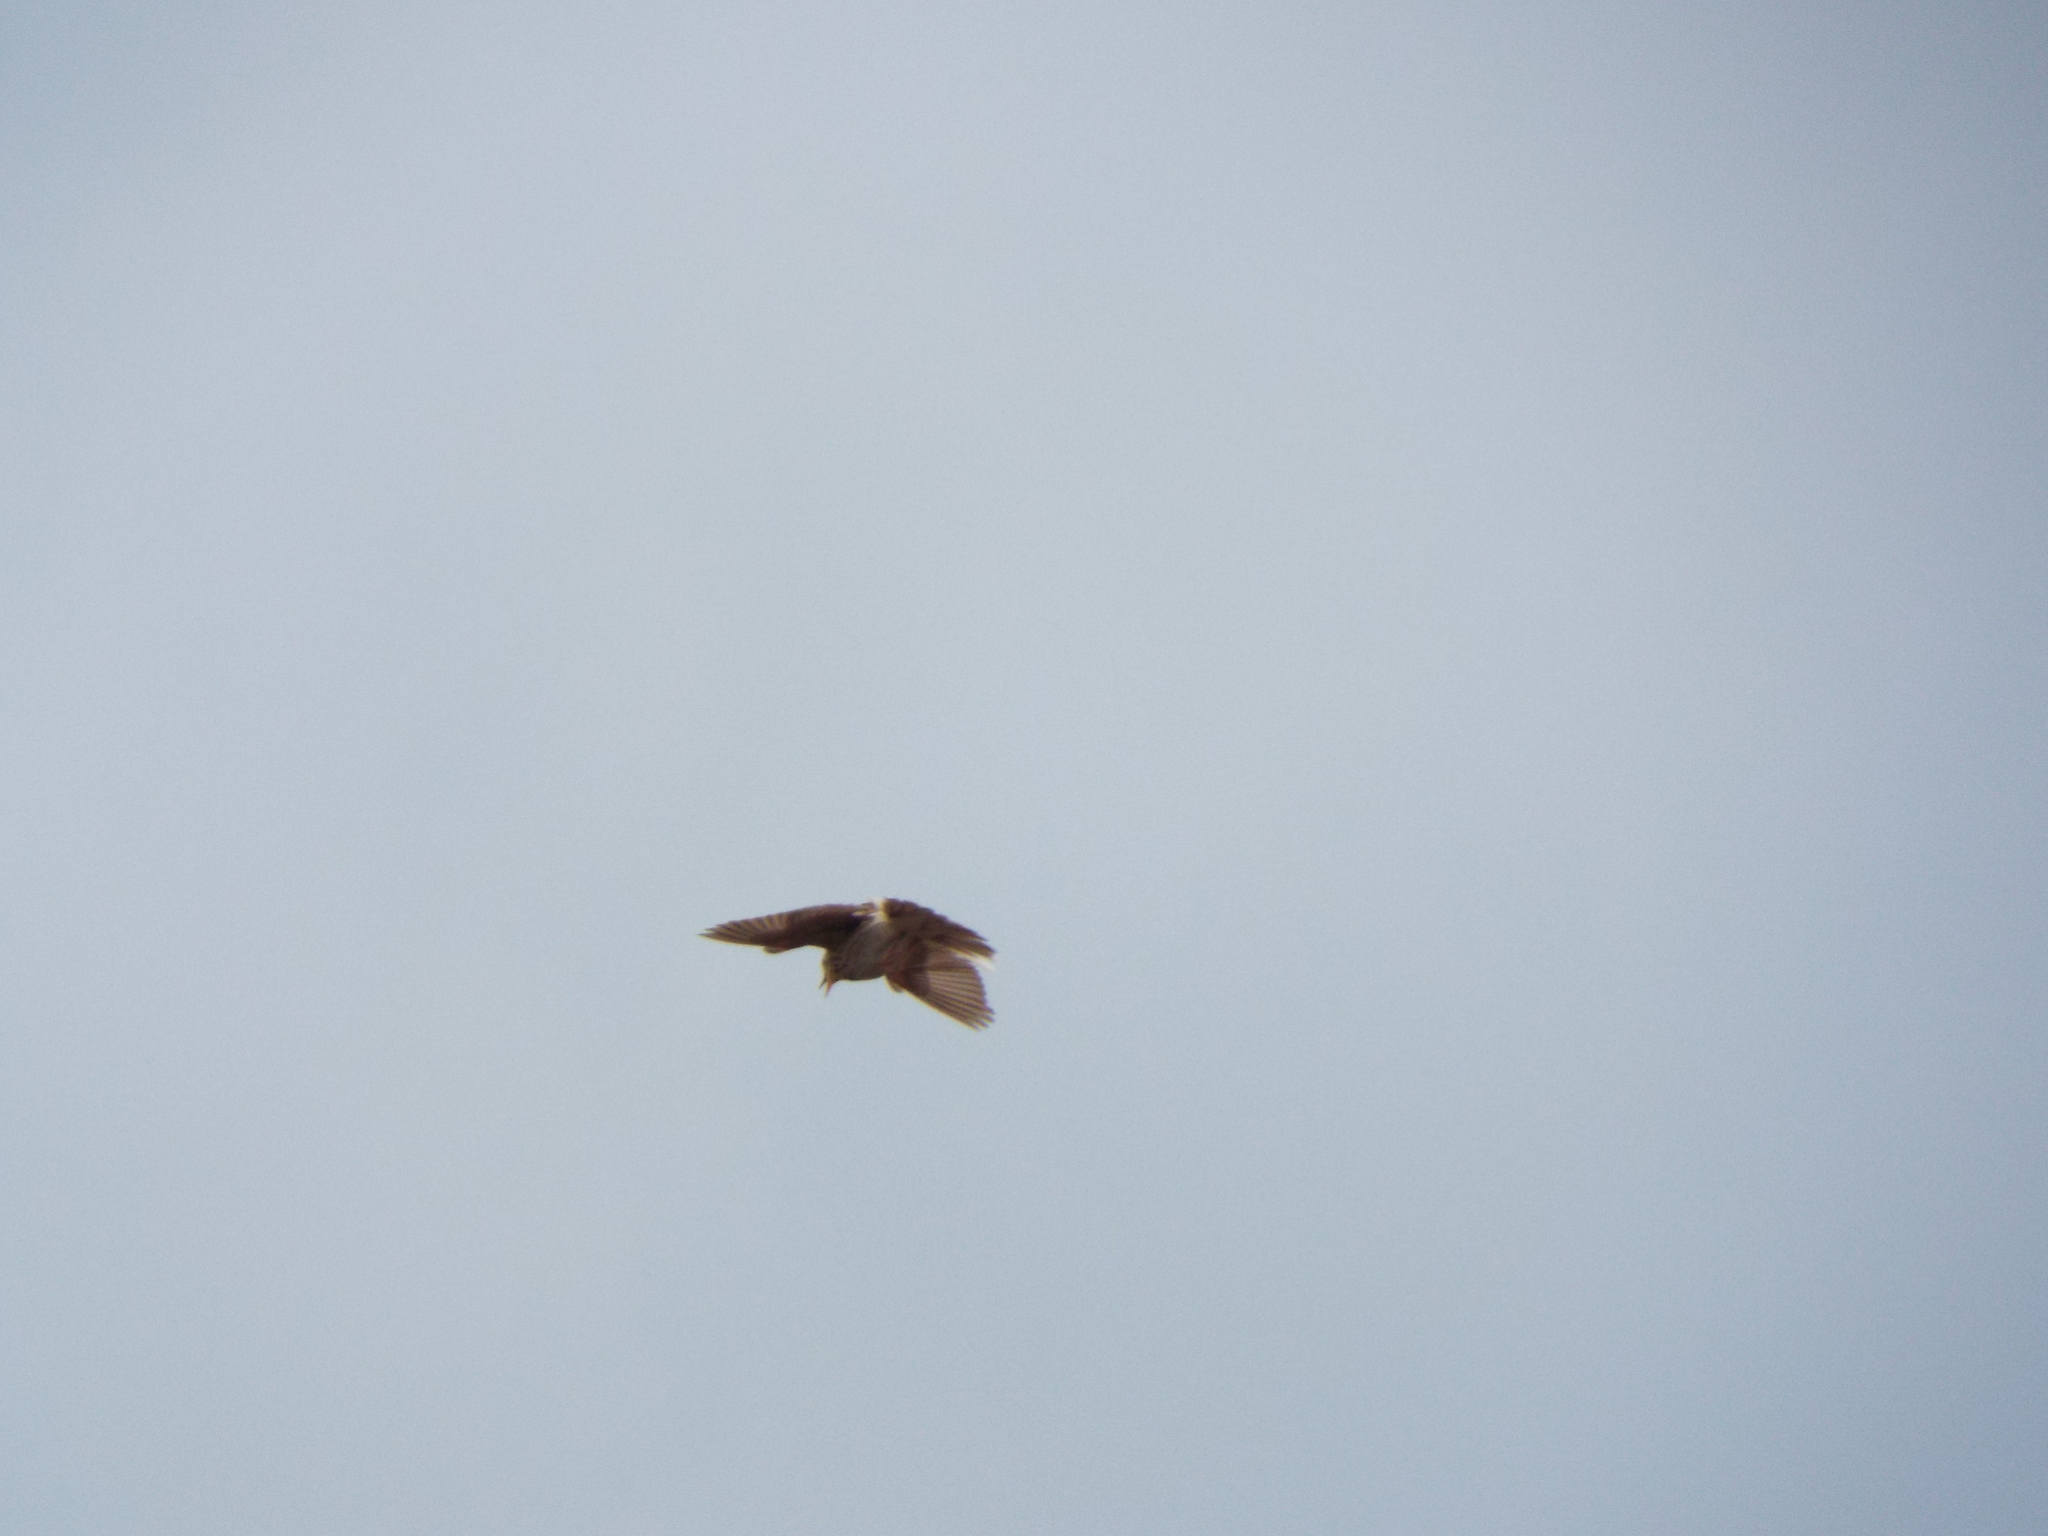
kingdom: Animalia
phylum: Chordata
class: Aves
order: Passeriformes
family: Motacillidae
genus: Anthus
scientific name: Anthus trivialis
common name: Tree pipit
